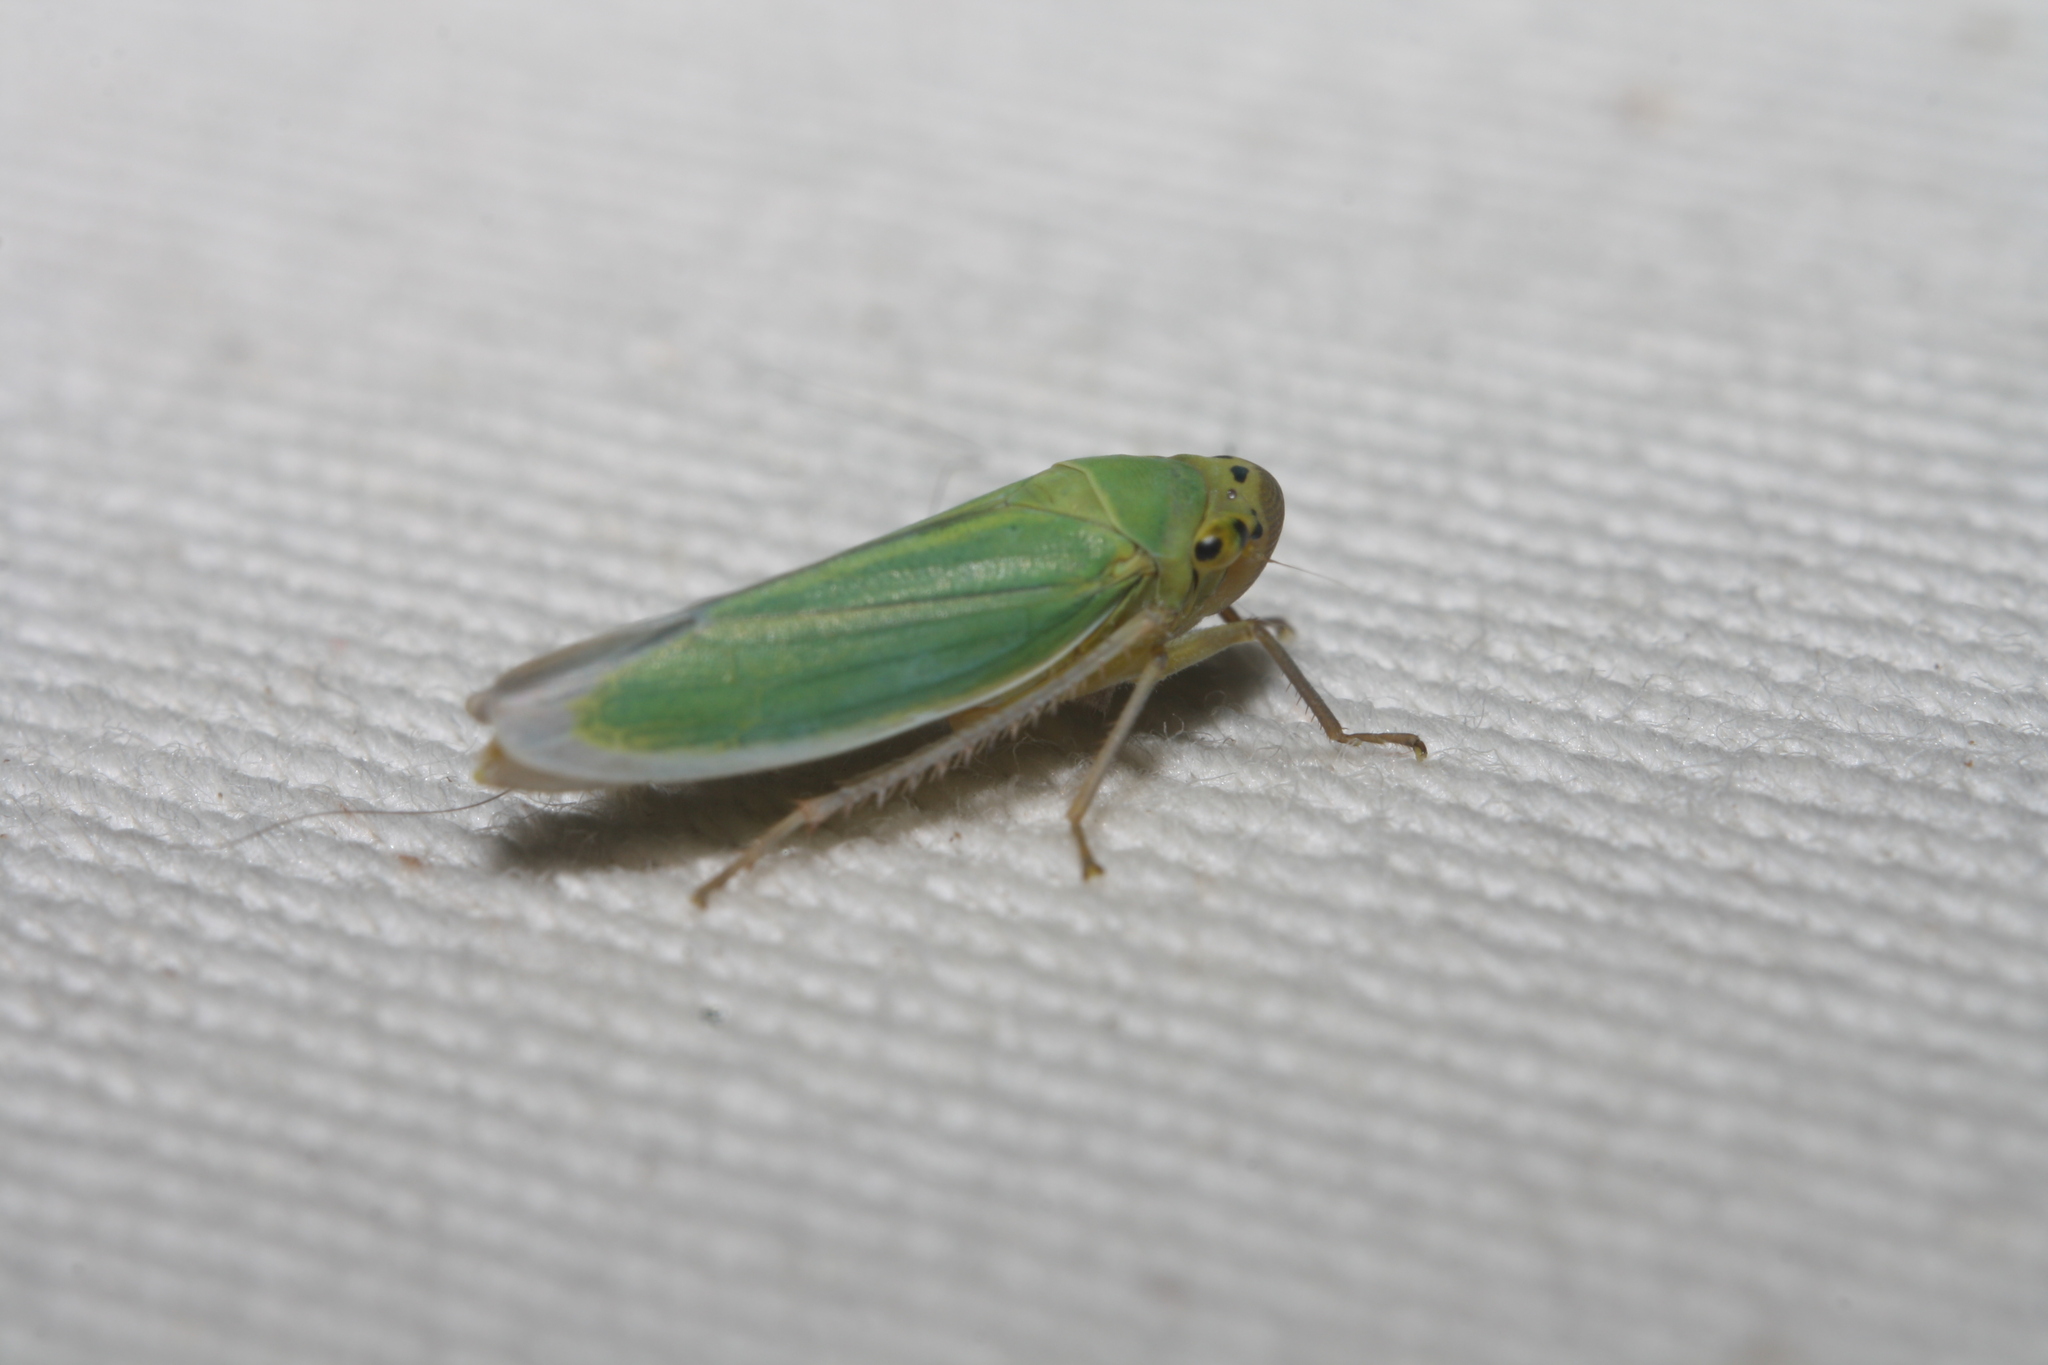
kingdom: Animalia
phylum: Arthropoda
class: Insecta
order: Hemiptera
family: Cicadellidae
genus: Cicadella
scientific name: Cicadella viridis
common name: Leafhopper
